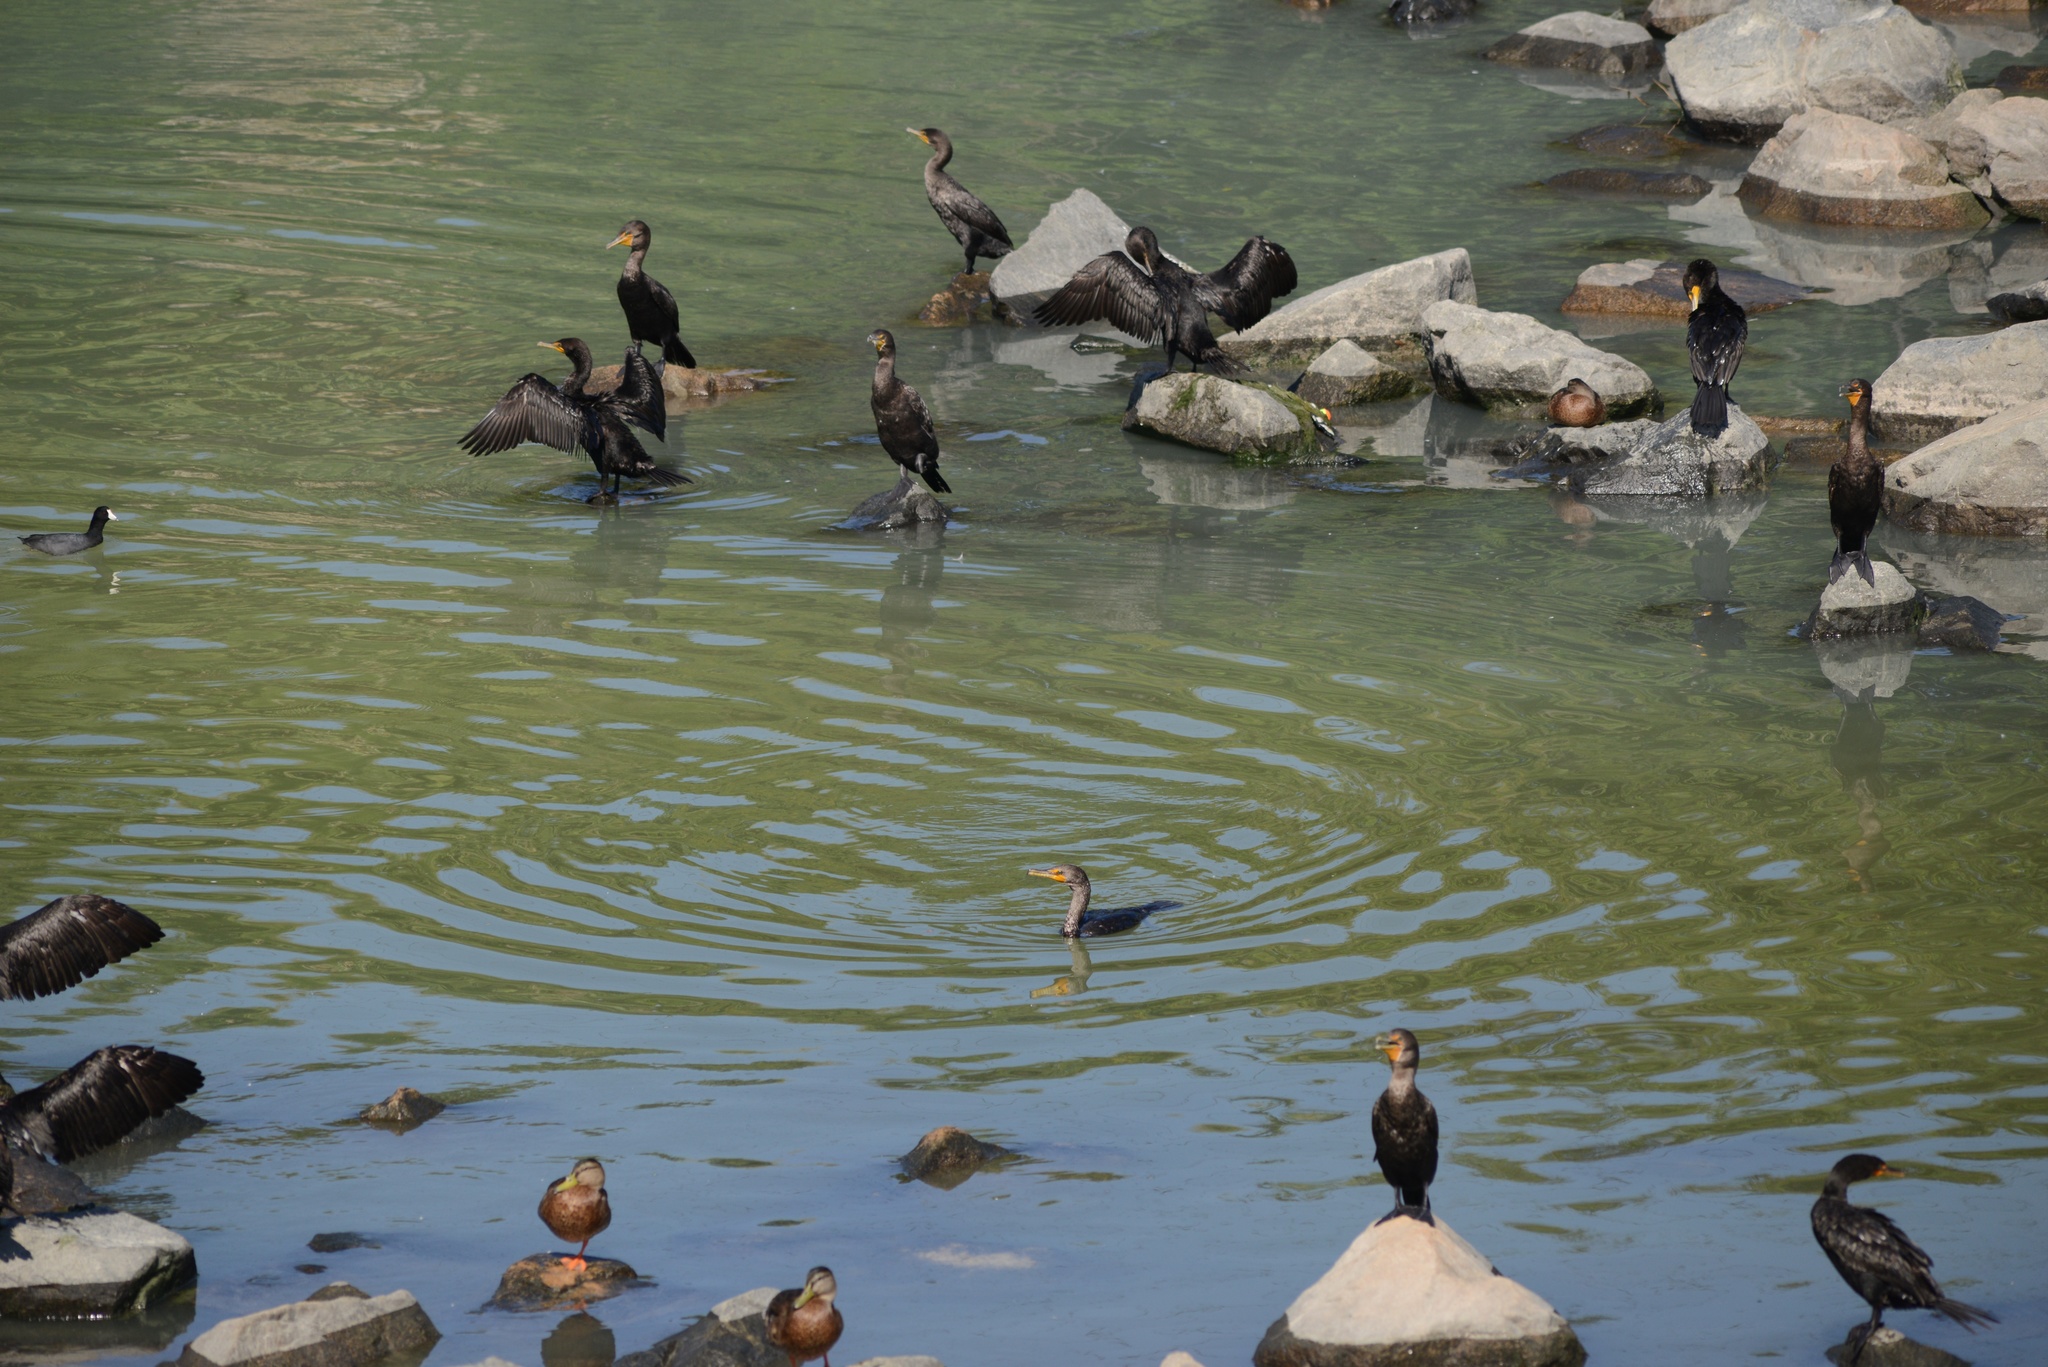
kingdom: Animalia
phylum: Chordata
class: Aves
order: Gruiformes
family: Rallidae
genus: Fulica
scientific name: Fulica americana
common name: American coot
